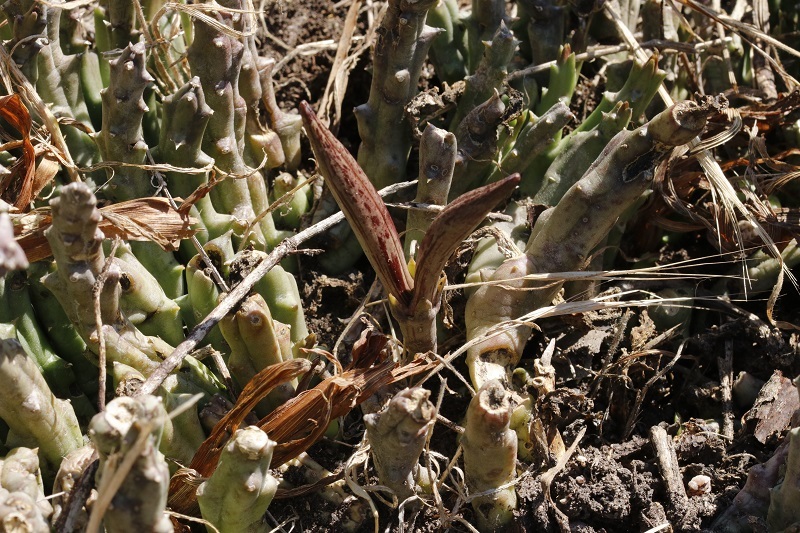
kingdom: Plantae
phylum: Tracheophyta
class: Magnoliopsida
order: Gentianales
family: Apocynaceae
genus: Ceropegia
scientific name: Ceropegia mixta
